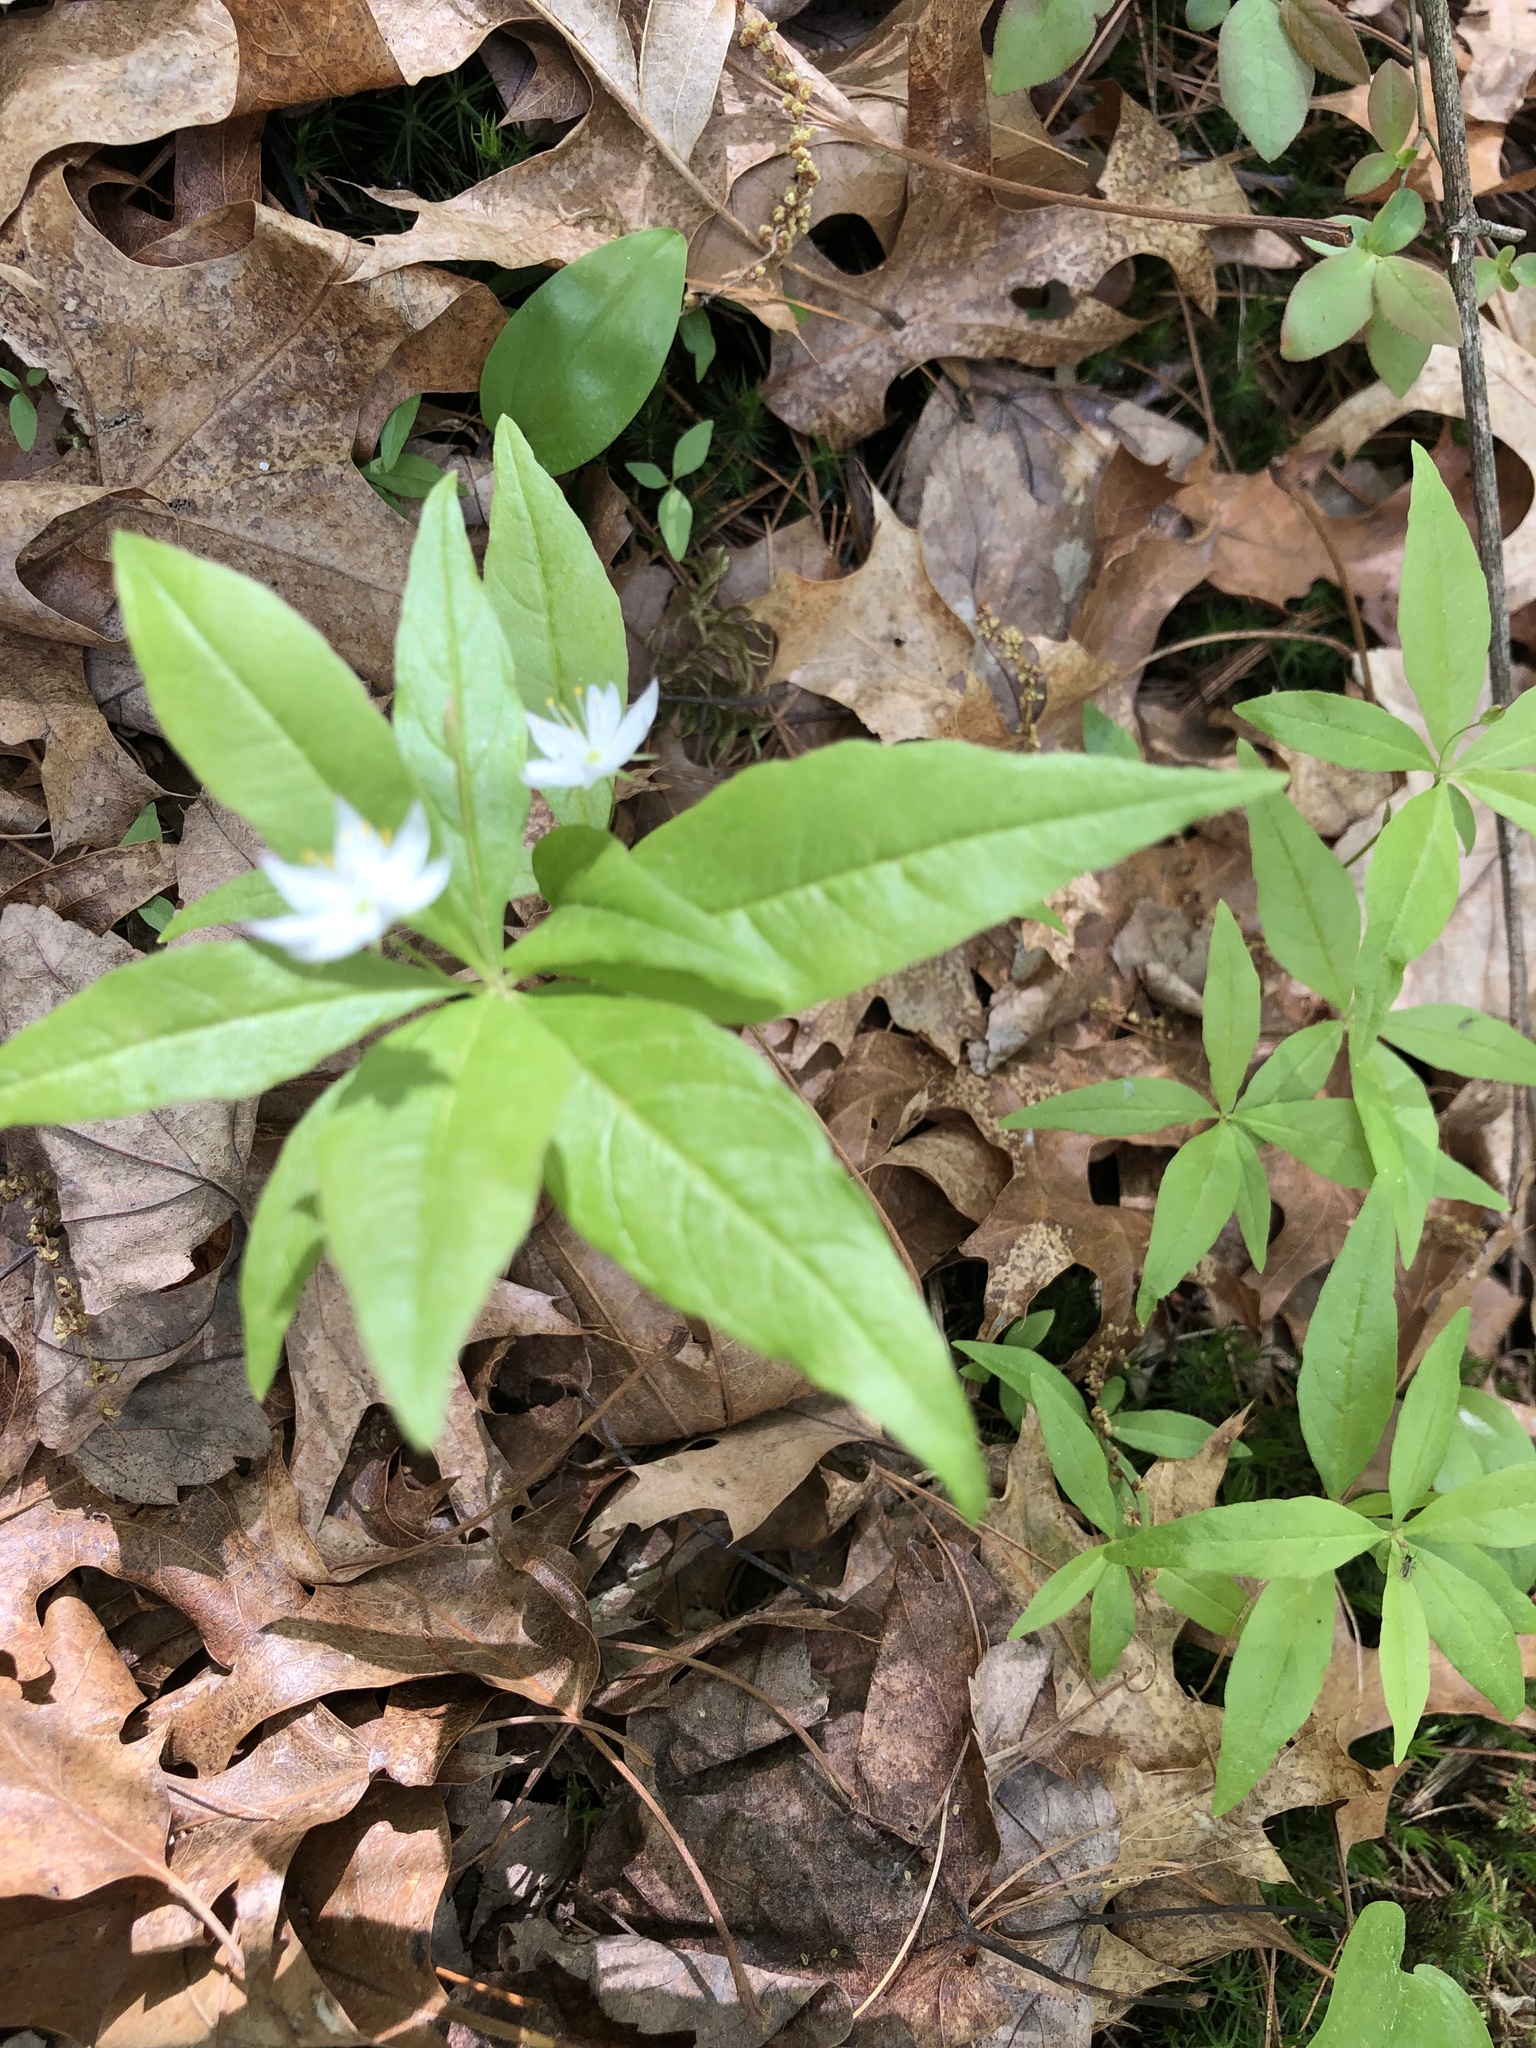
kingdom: Plantae
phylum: Tracheophyta
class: Magnoliopsida
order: Ericales
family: Primulaceae
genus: Lysimachia
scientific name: Lysimachia borealis
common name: American starflower
